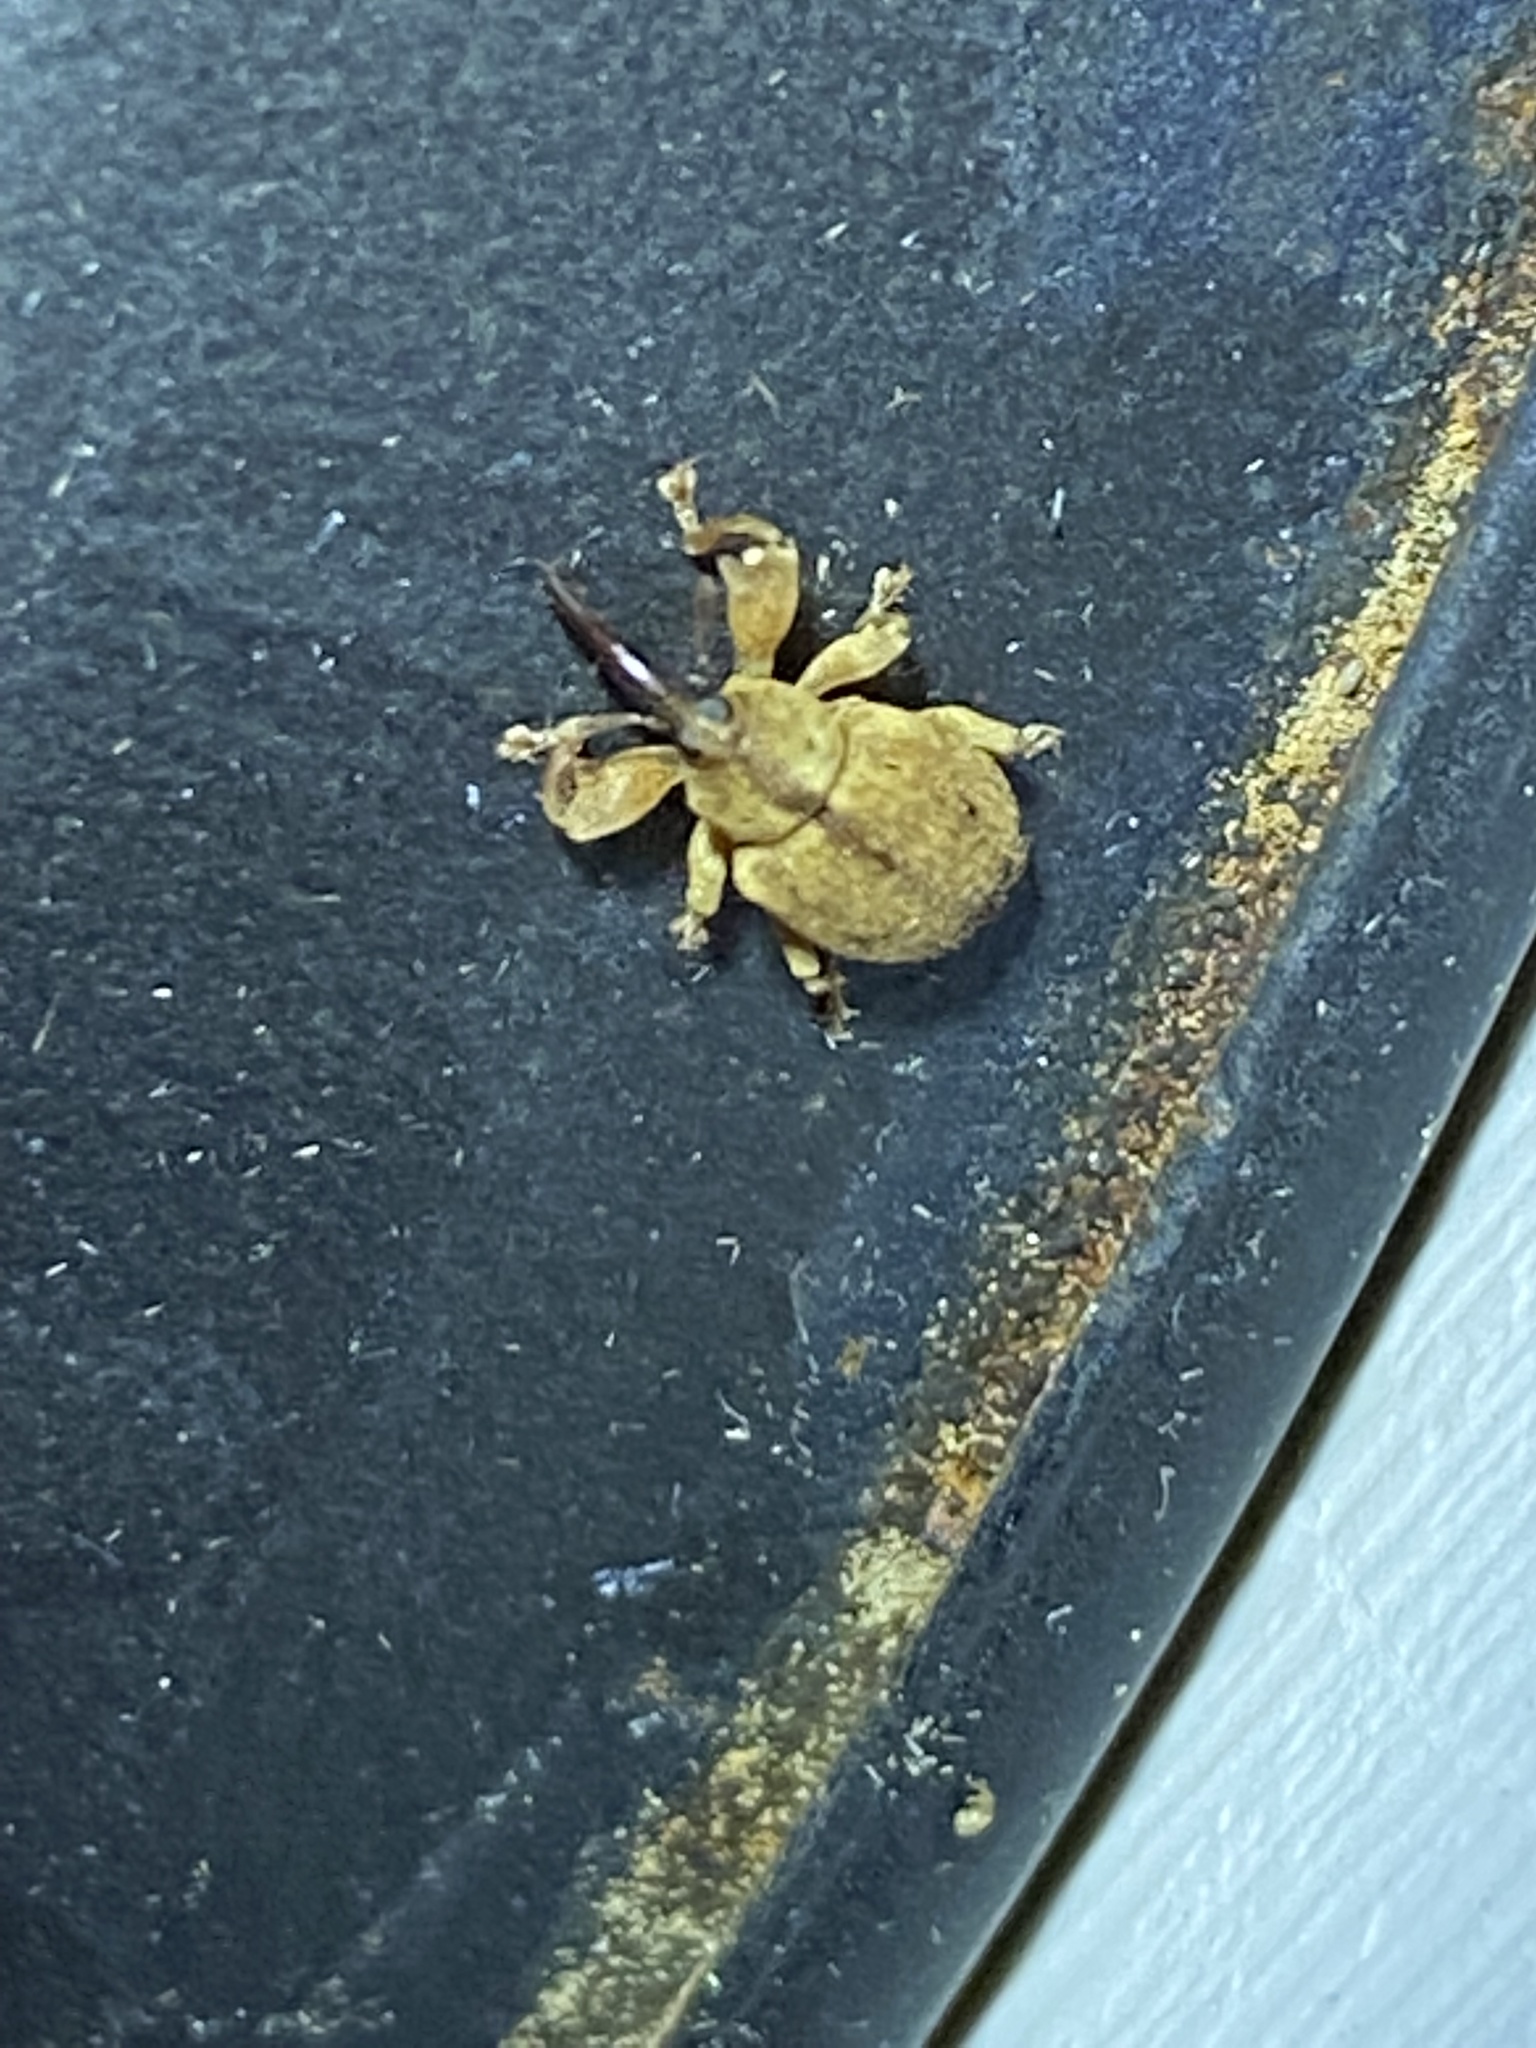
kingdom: Animalia
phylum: Arthropoda
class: Insecta
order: Coleoptera
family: Curculionidae
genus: Ochyromera
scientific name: Ochyromera ligustri
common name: Weevil
